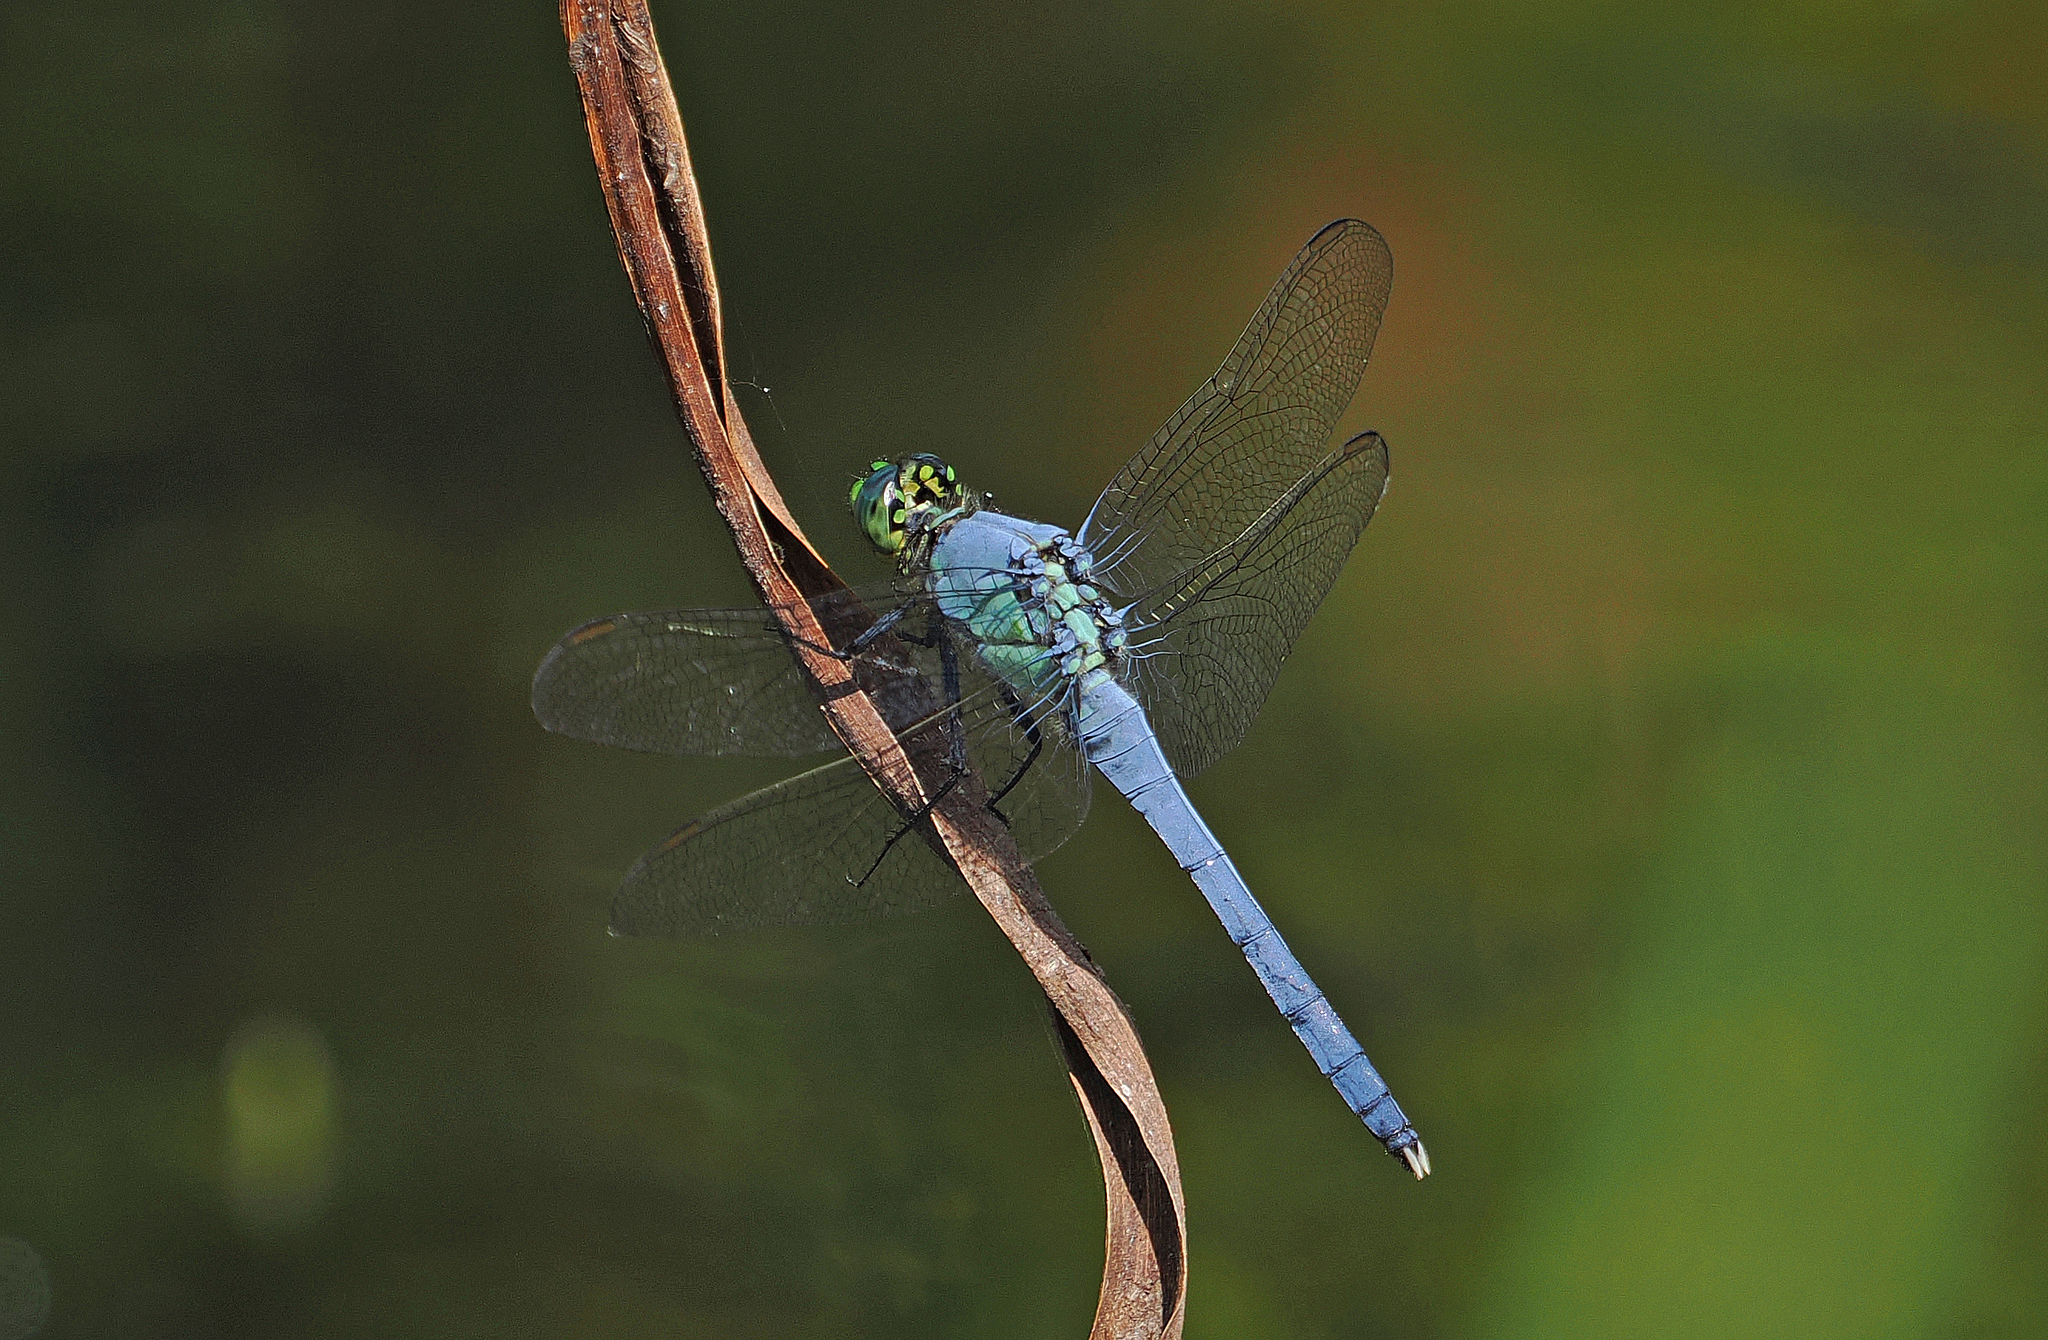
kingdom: Animalia
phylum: Arthropoda
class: Insecta
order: Odonata
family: Libellulidae
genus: Erythemis
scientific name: Erythemis simplicicollis
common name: Eastern pondhawk
